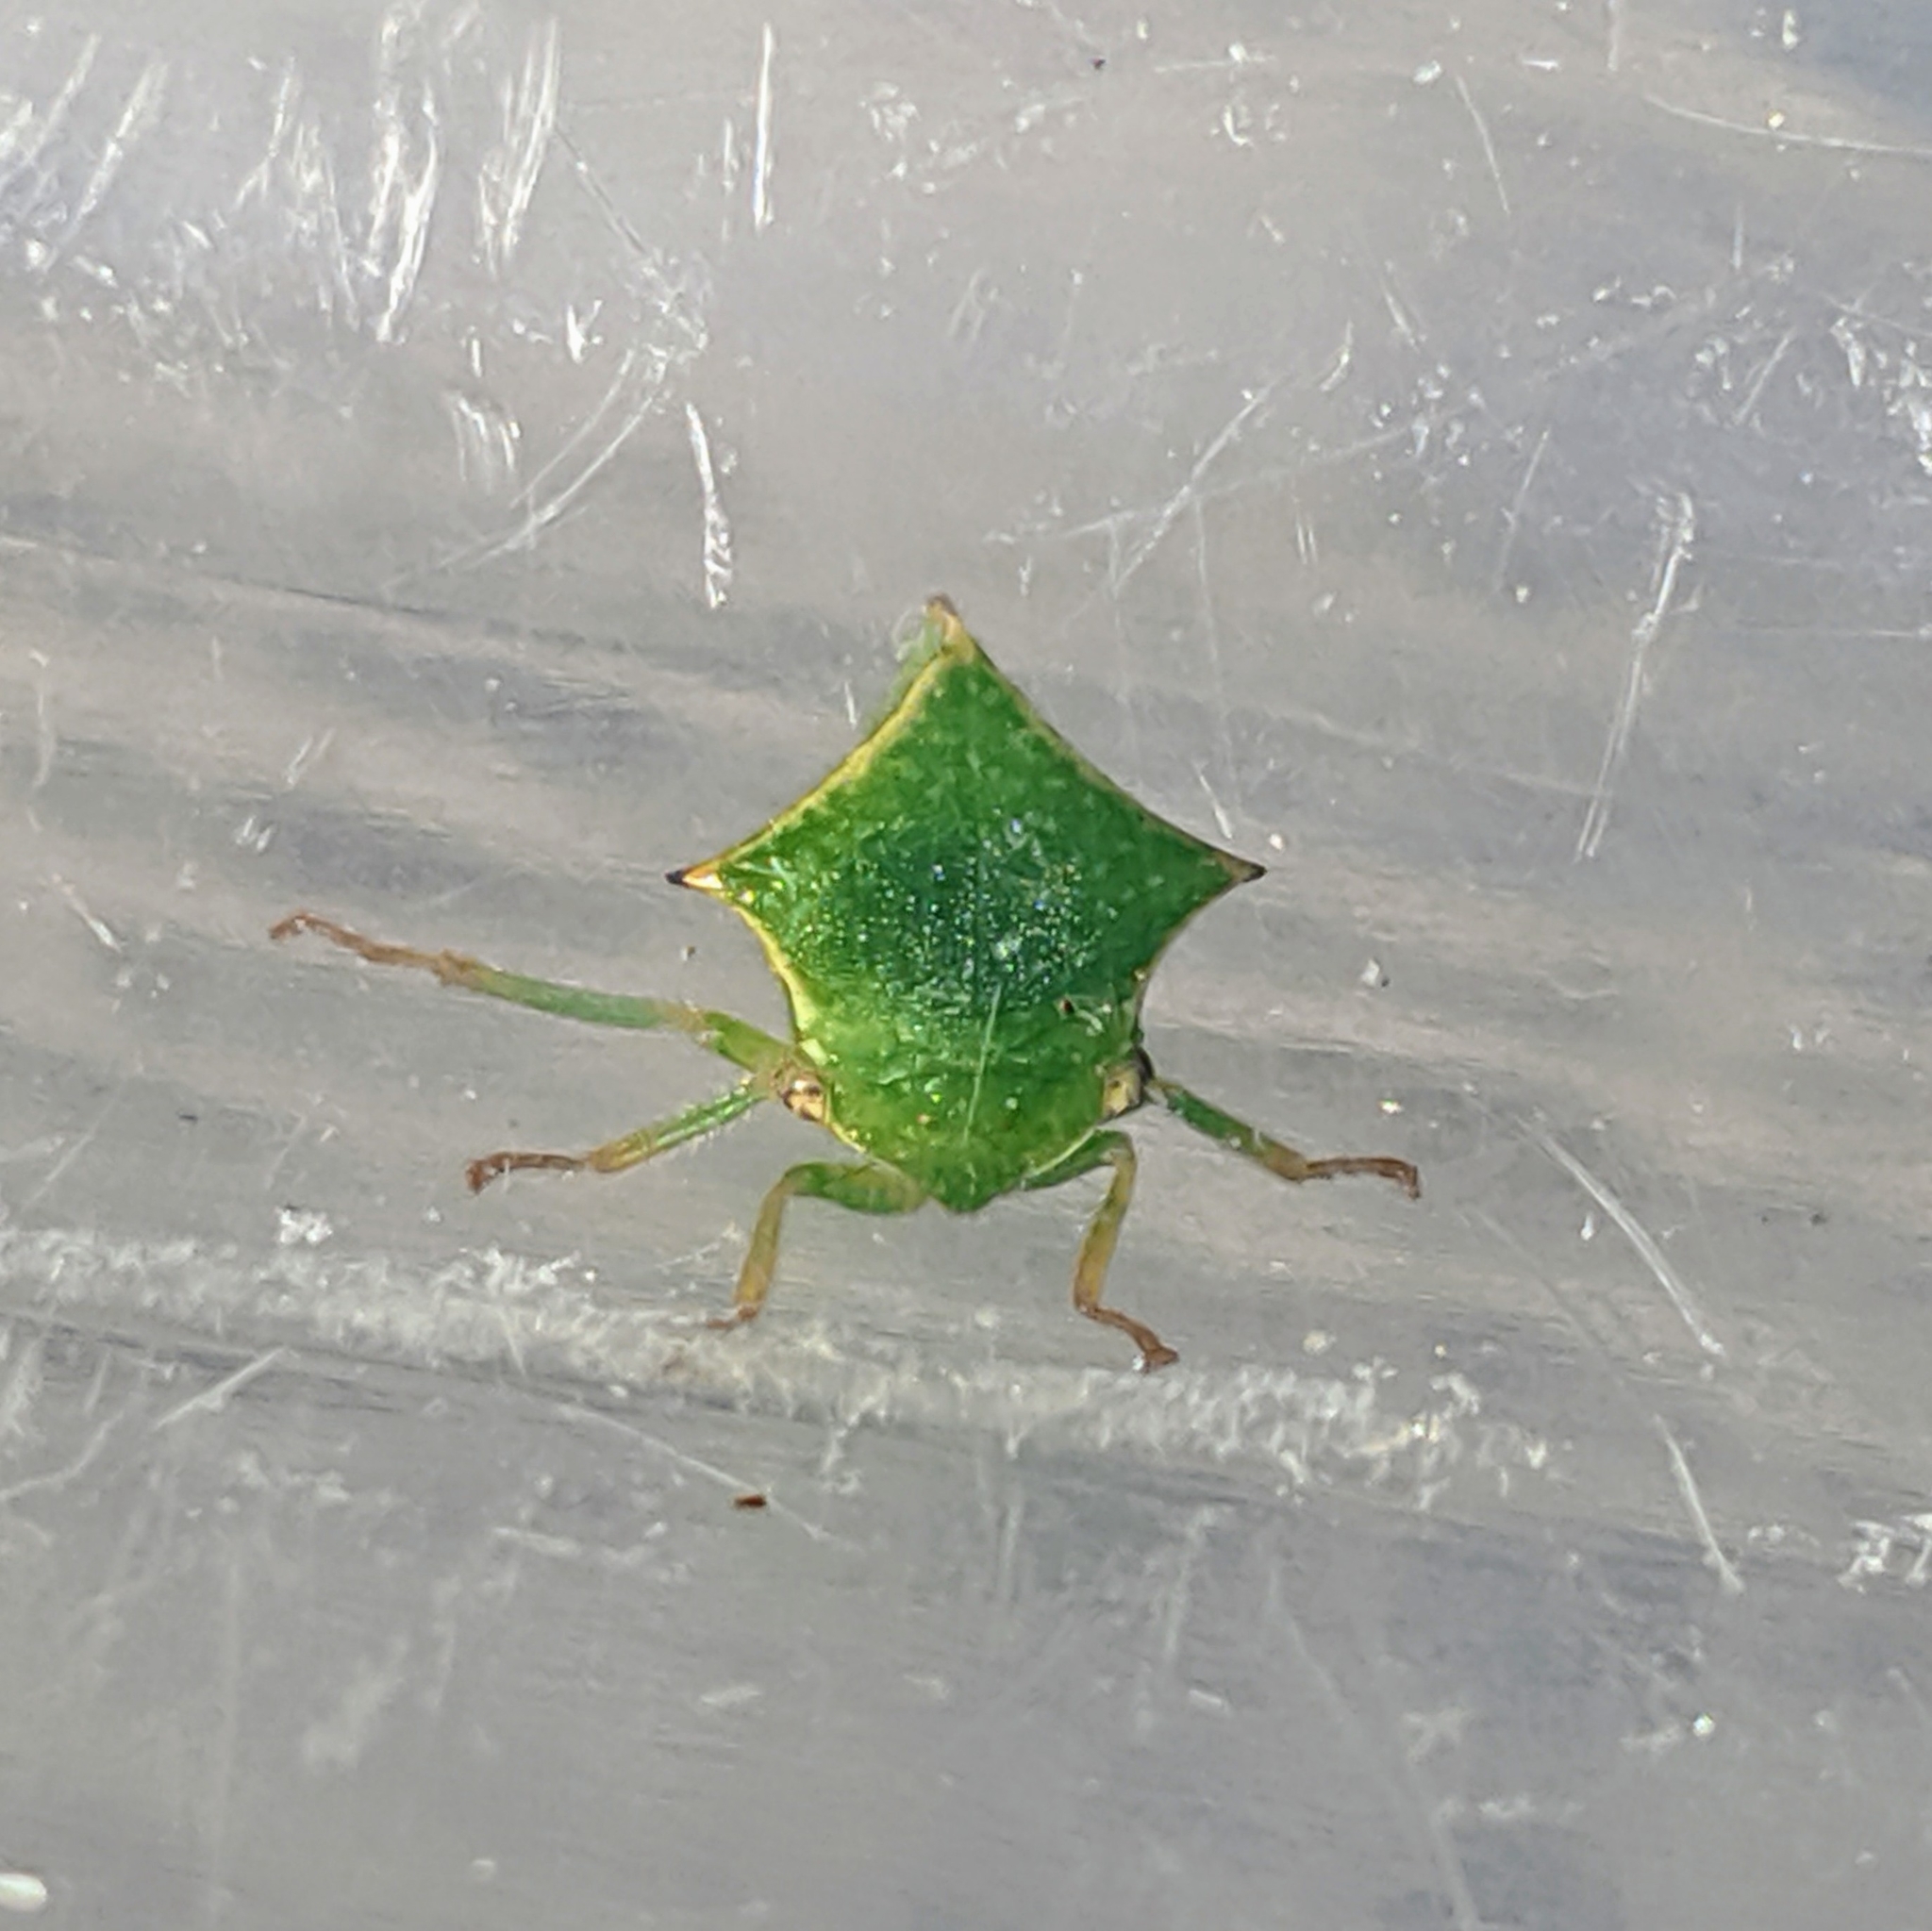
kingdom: Animalia
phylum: Arthropoda
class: Insecta
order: Hemiptera
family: Membracidae
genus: Stictocephala
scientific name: Stictocephala bisonia
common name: American buffalo treehopper
